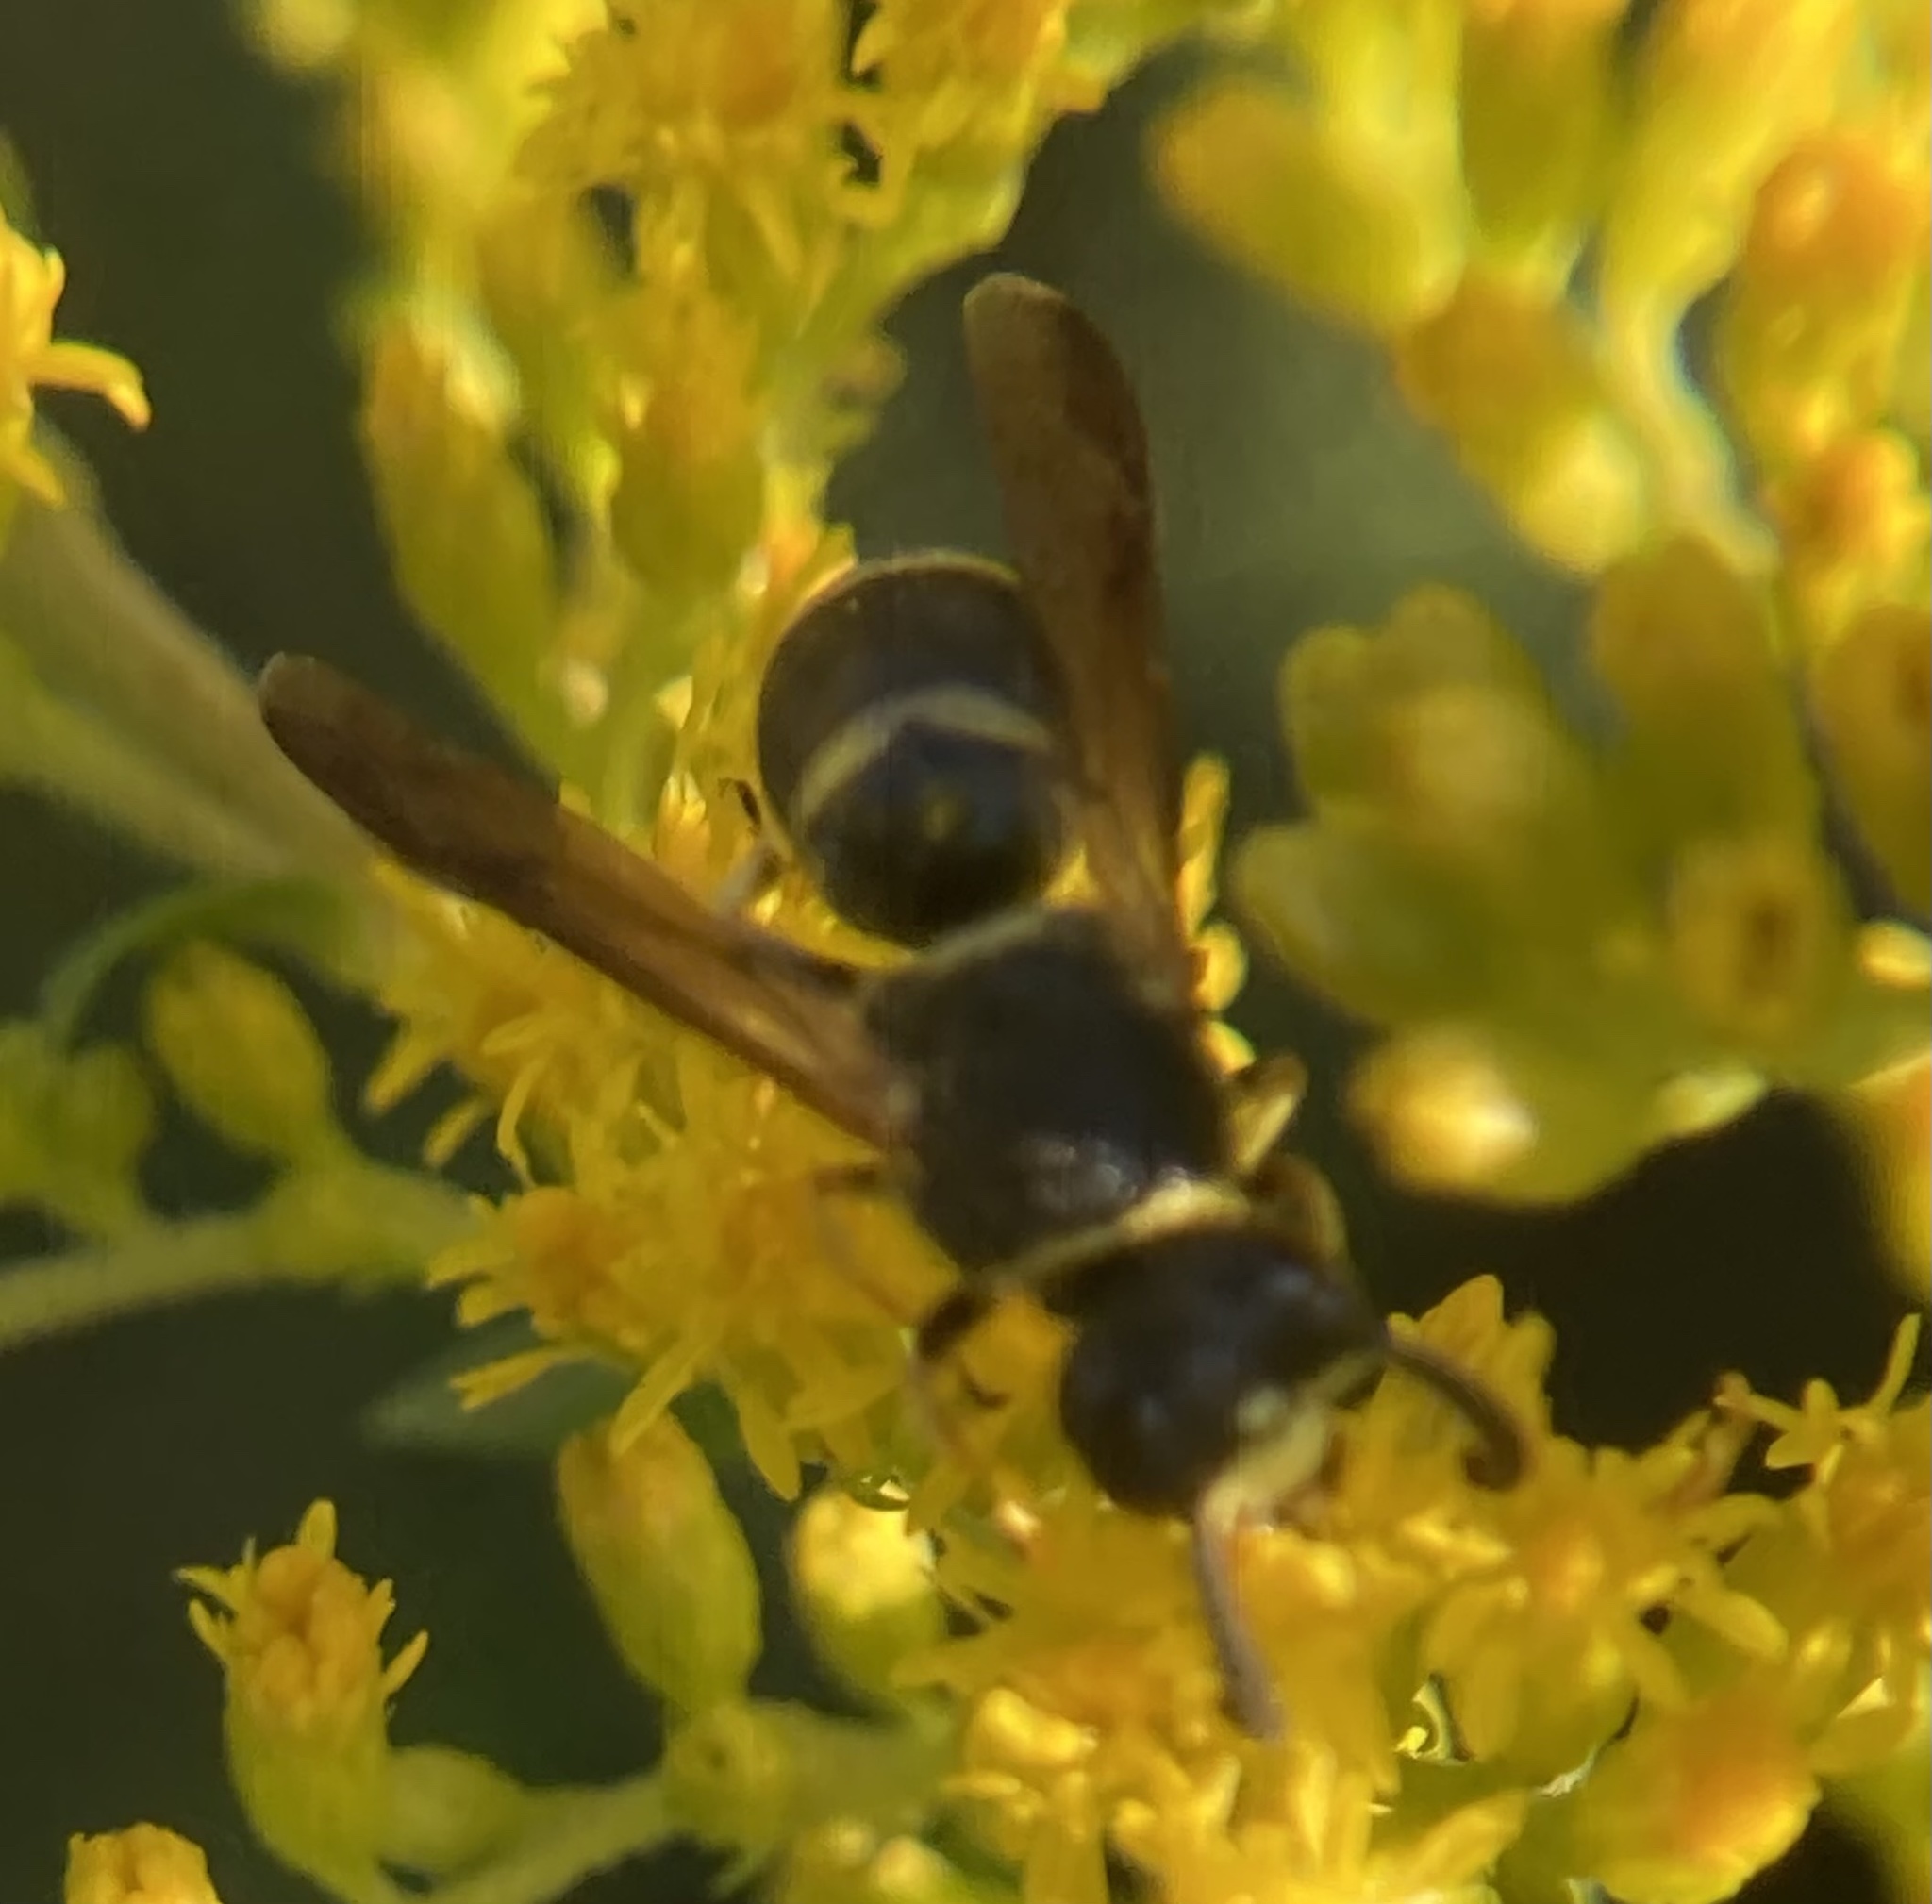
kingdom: Animalia
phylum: Arthropoda
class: Insecta
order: Hymenoptera
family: Eumenidae
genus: Euodynerus
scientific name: Euodynerus foraminatus
